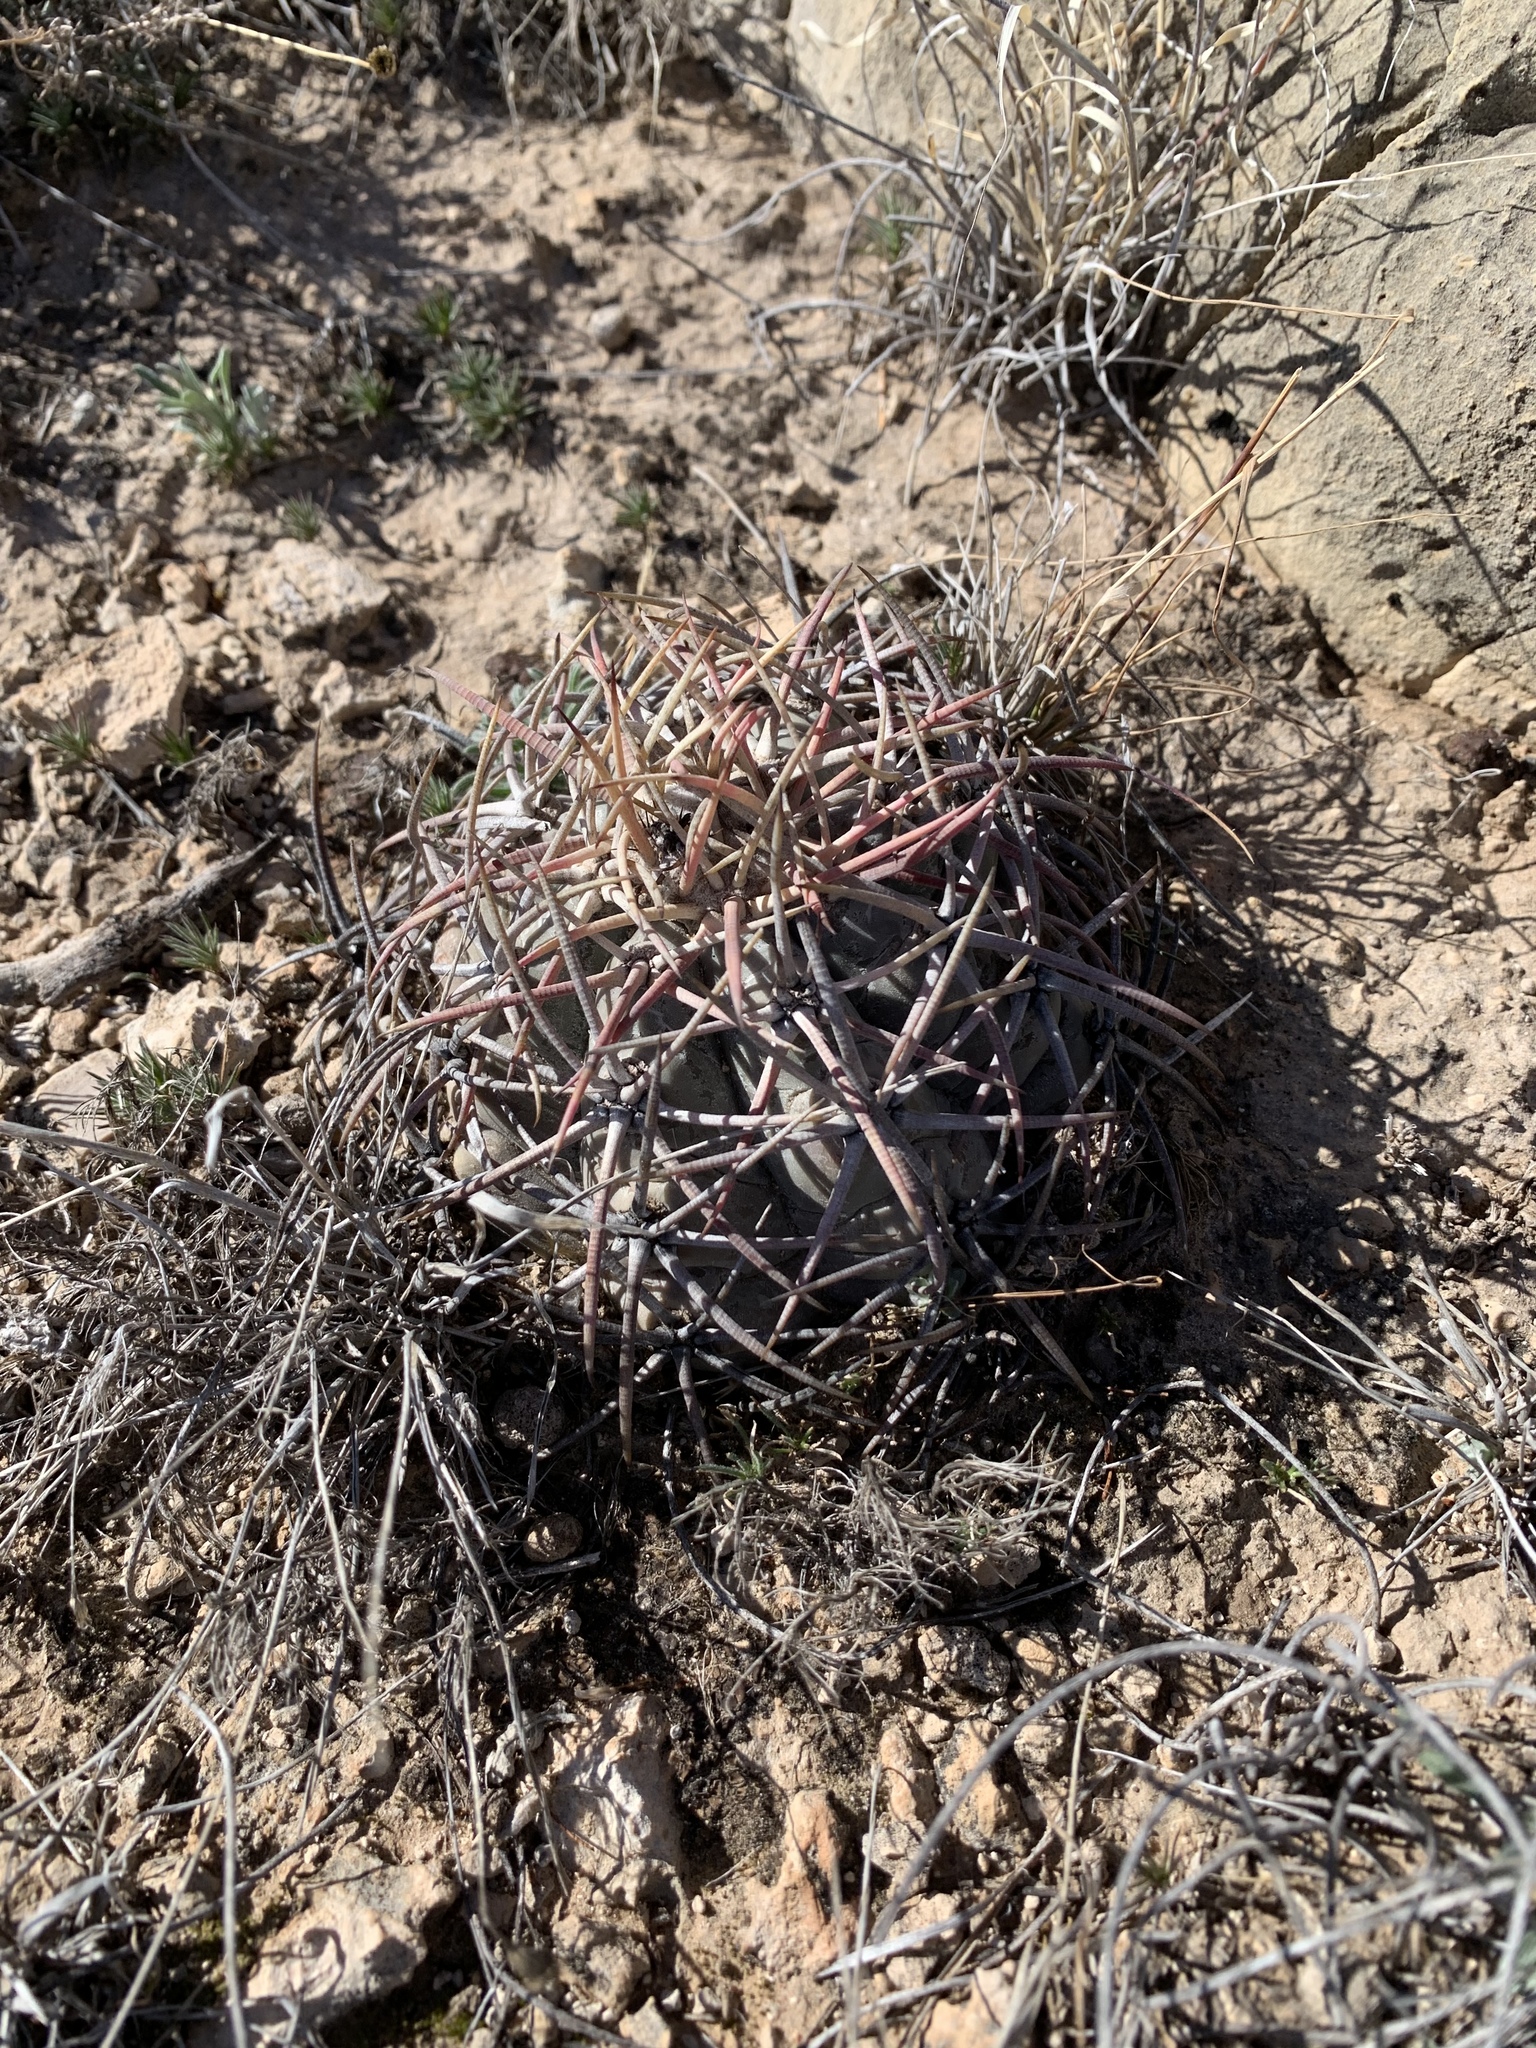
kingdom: Plantae
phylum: Tracheophyta
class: Magnoliopsida
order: Caryophyllales
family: Cactaceae
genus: Echinocactus
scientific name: Echinocactus horizonthalonius
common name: Devilshead
